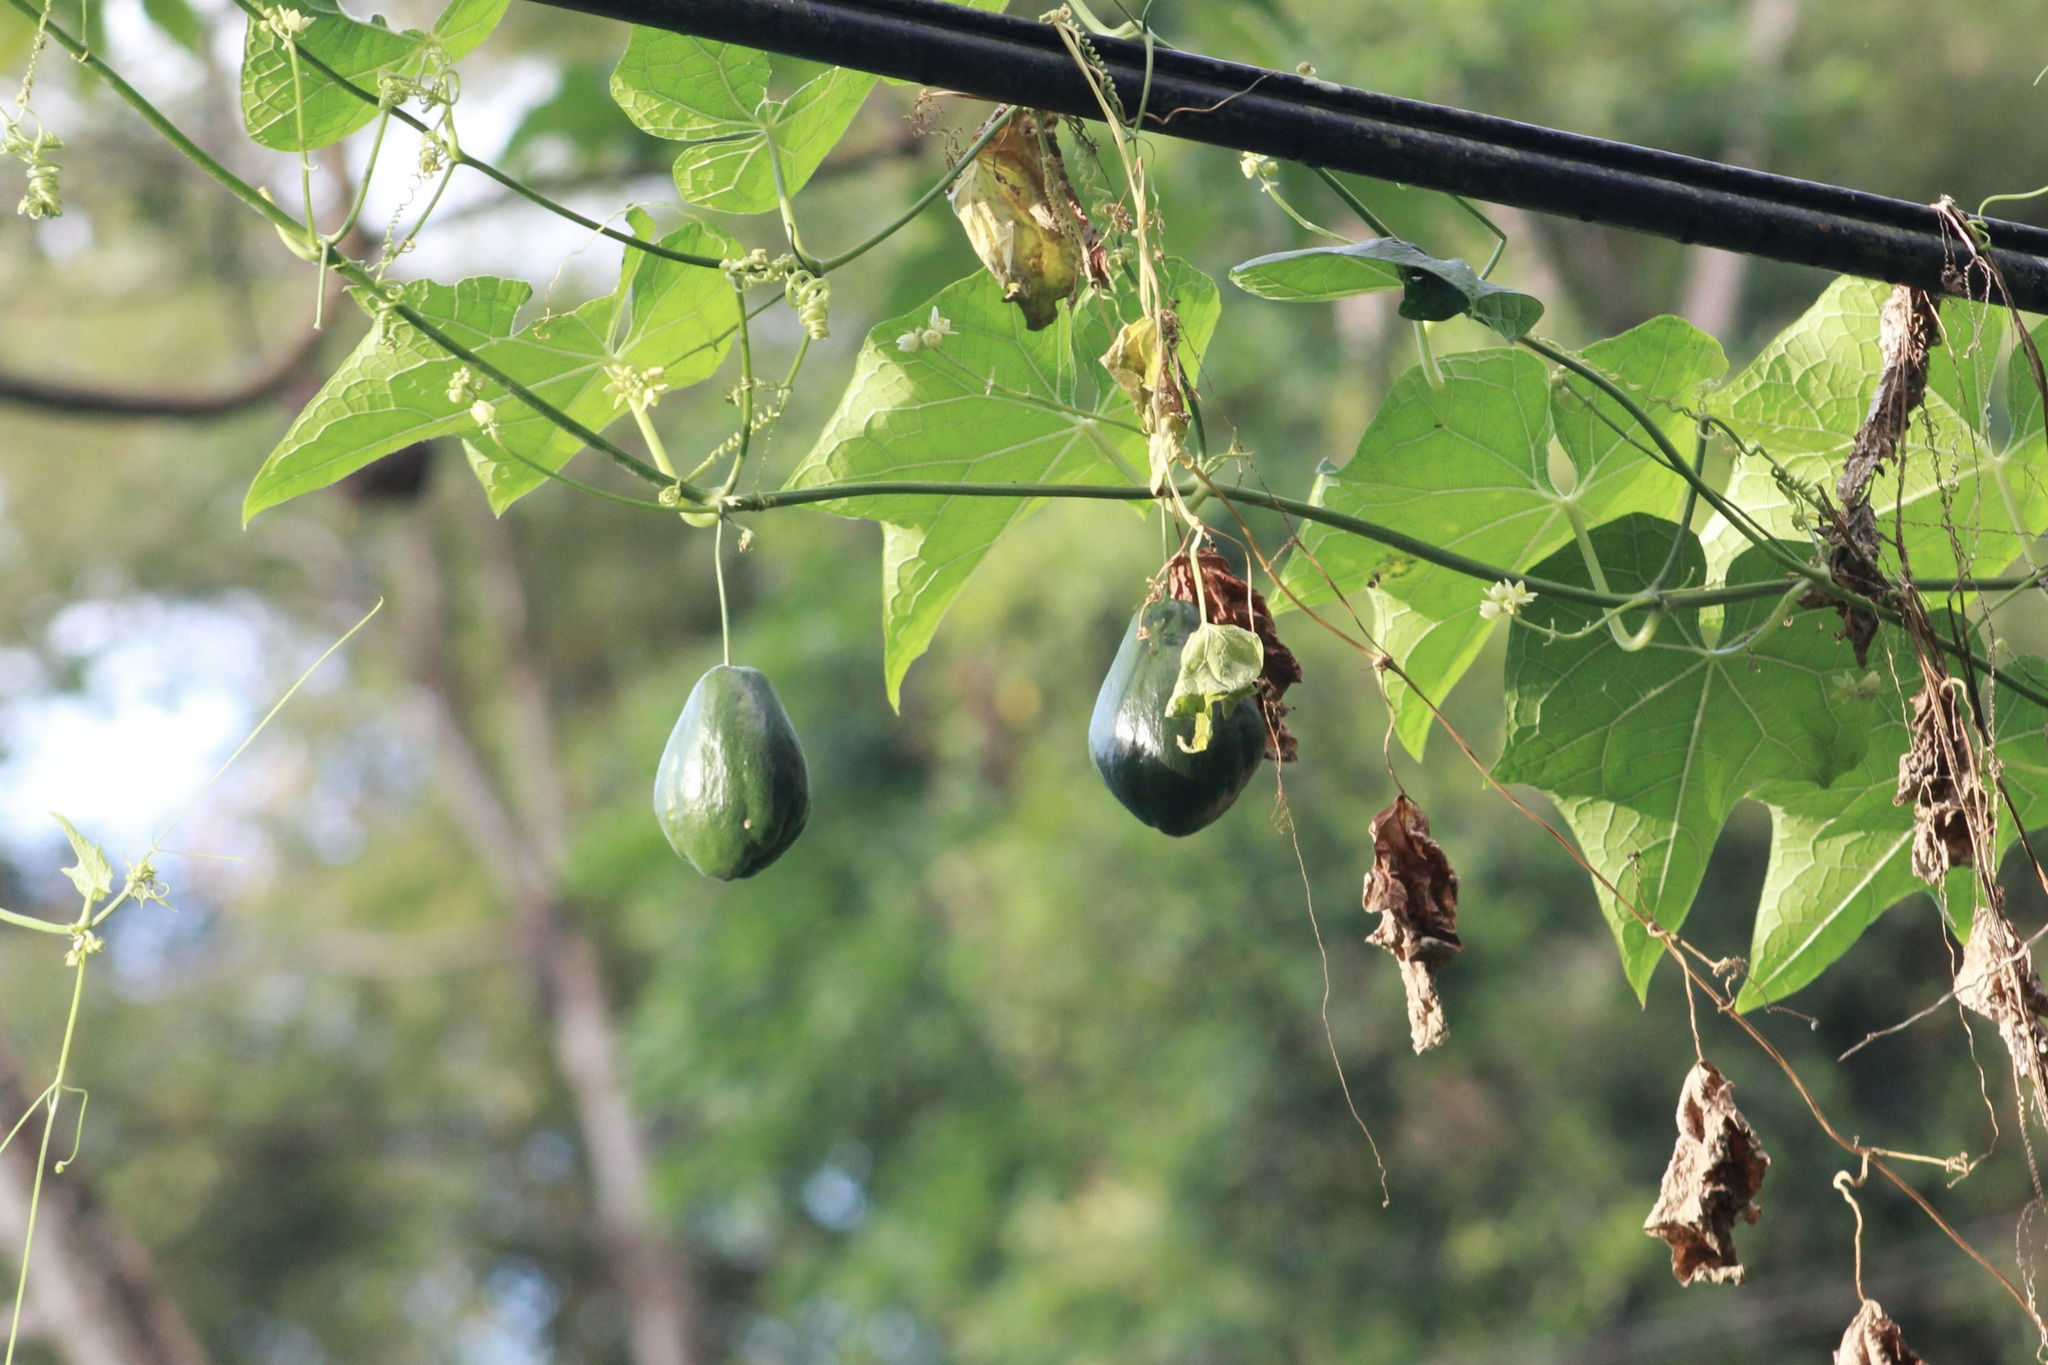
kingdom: Plantae
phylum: Tracheophyta
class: Magnoliopsida
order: Cucurbitales
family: Cucurbitaceae
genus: Sechium
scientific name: Sechium edule
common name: Chayote
